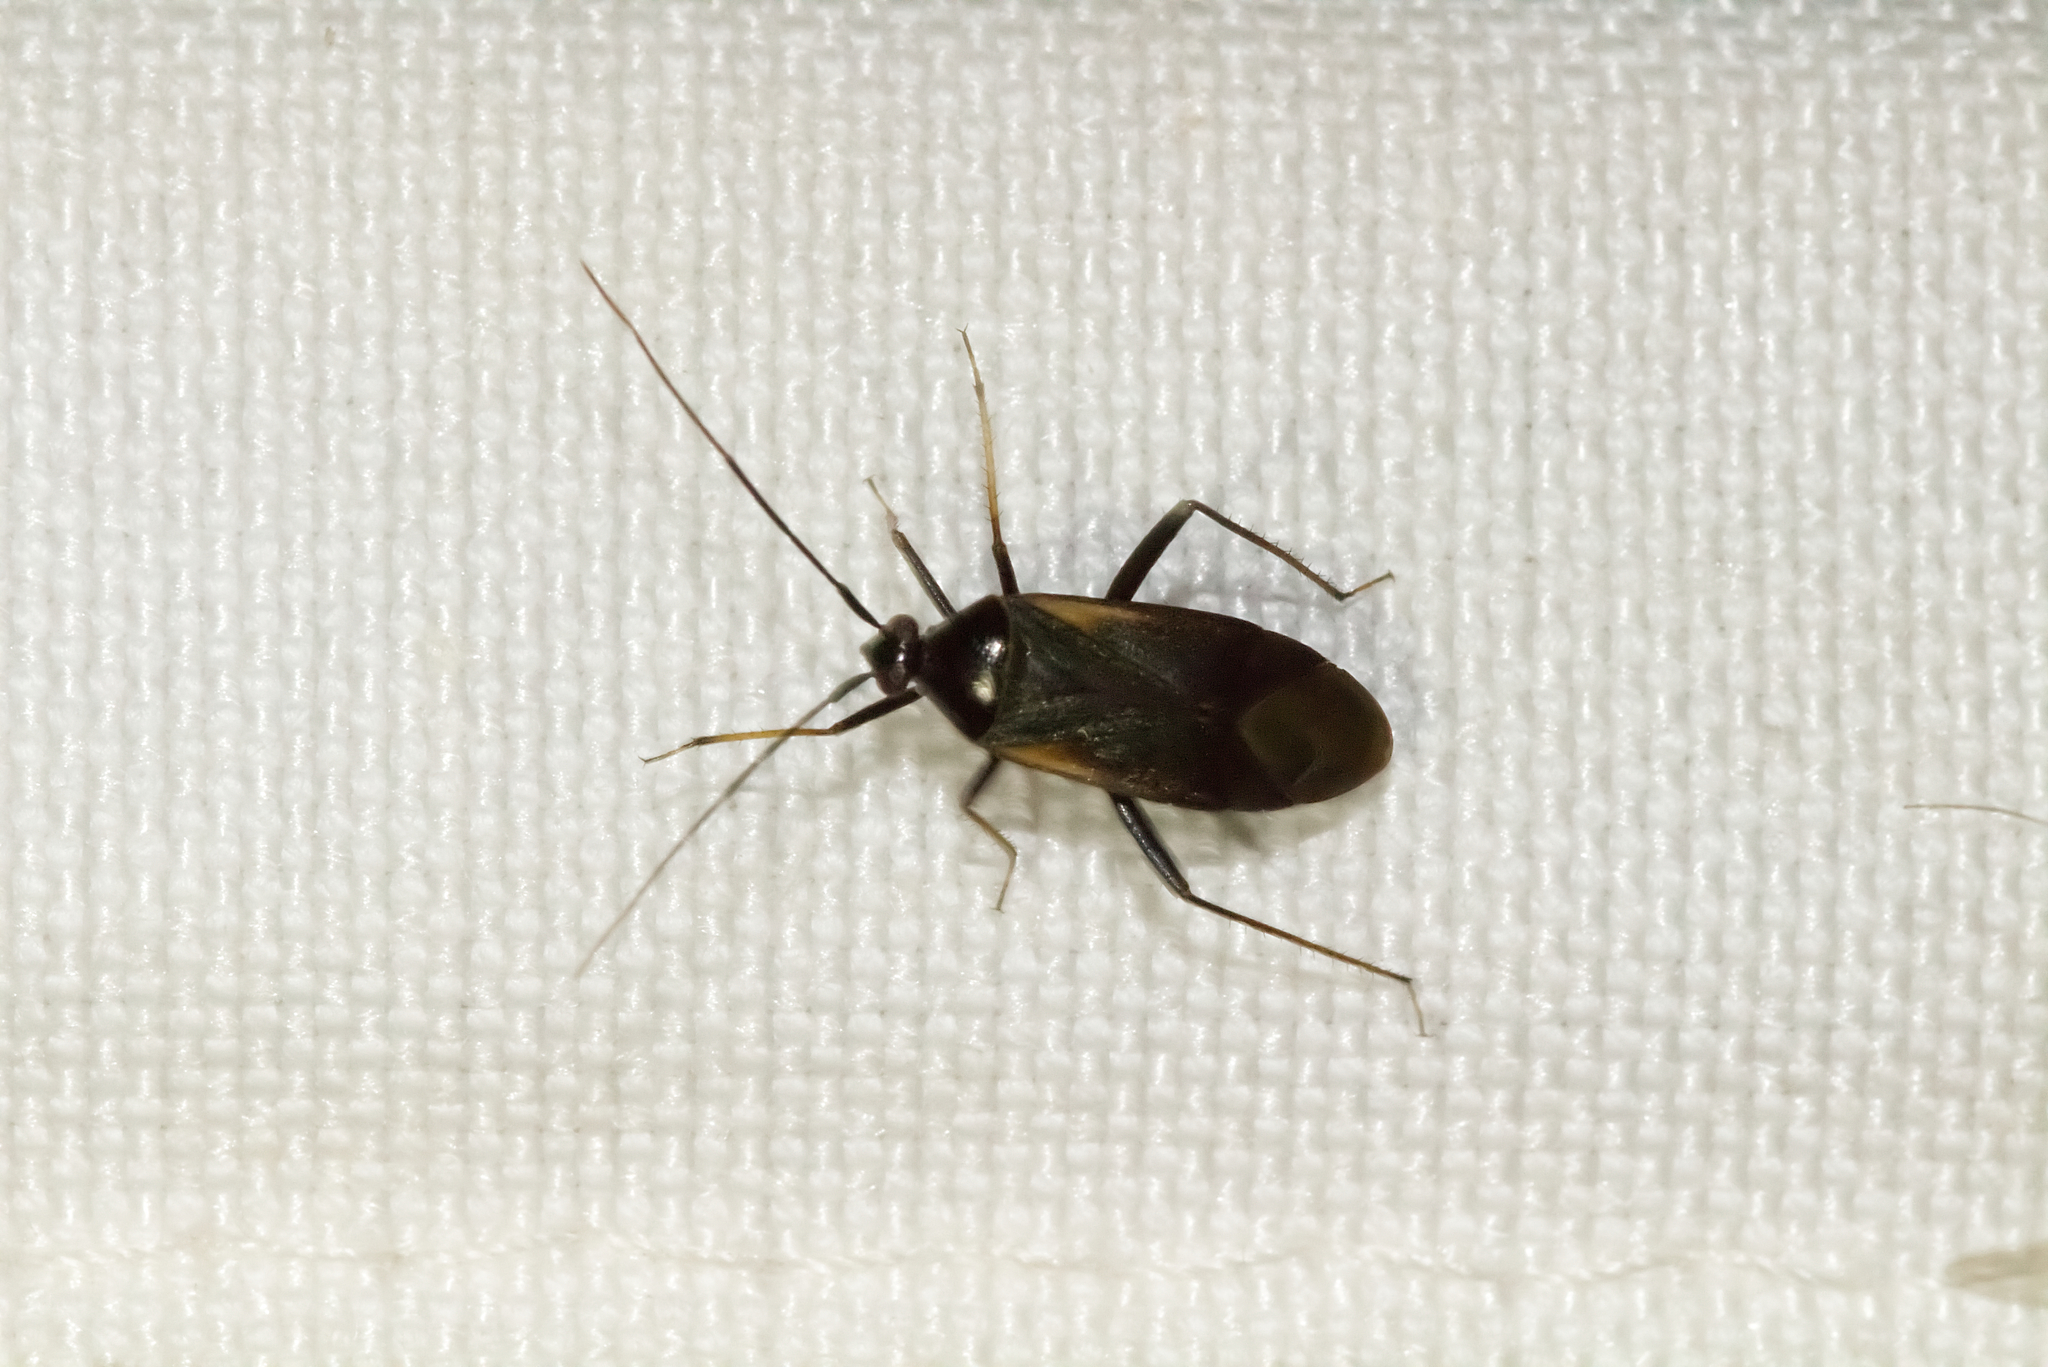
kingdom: Animalia
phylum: Arthropoda
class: Insecta
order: Hemiptera
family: Miridae
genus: Adelphocoris
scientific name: Adelphocoris seticornis
